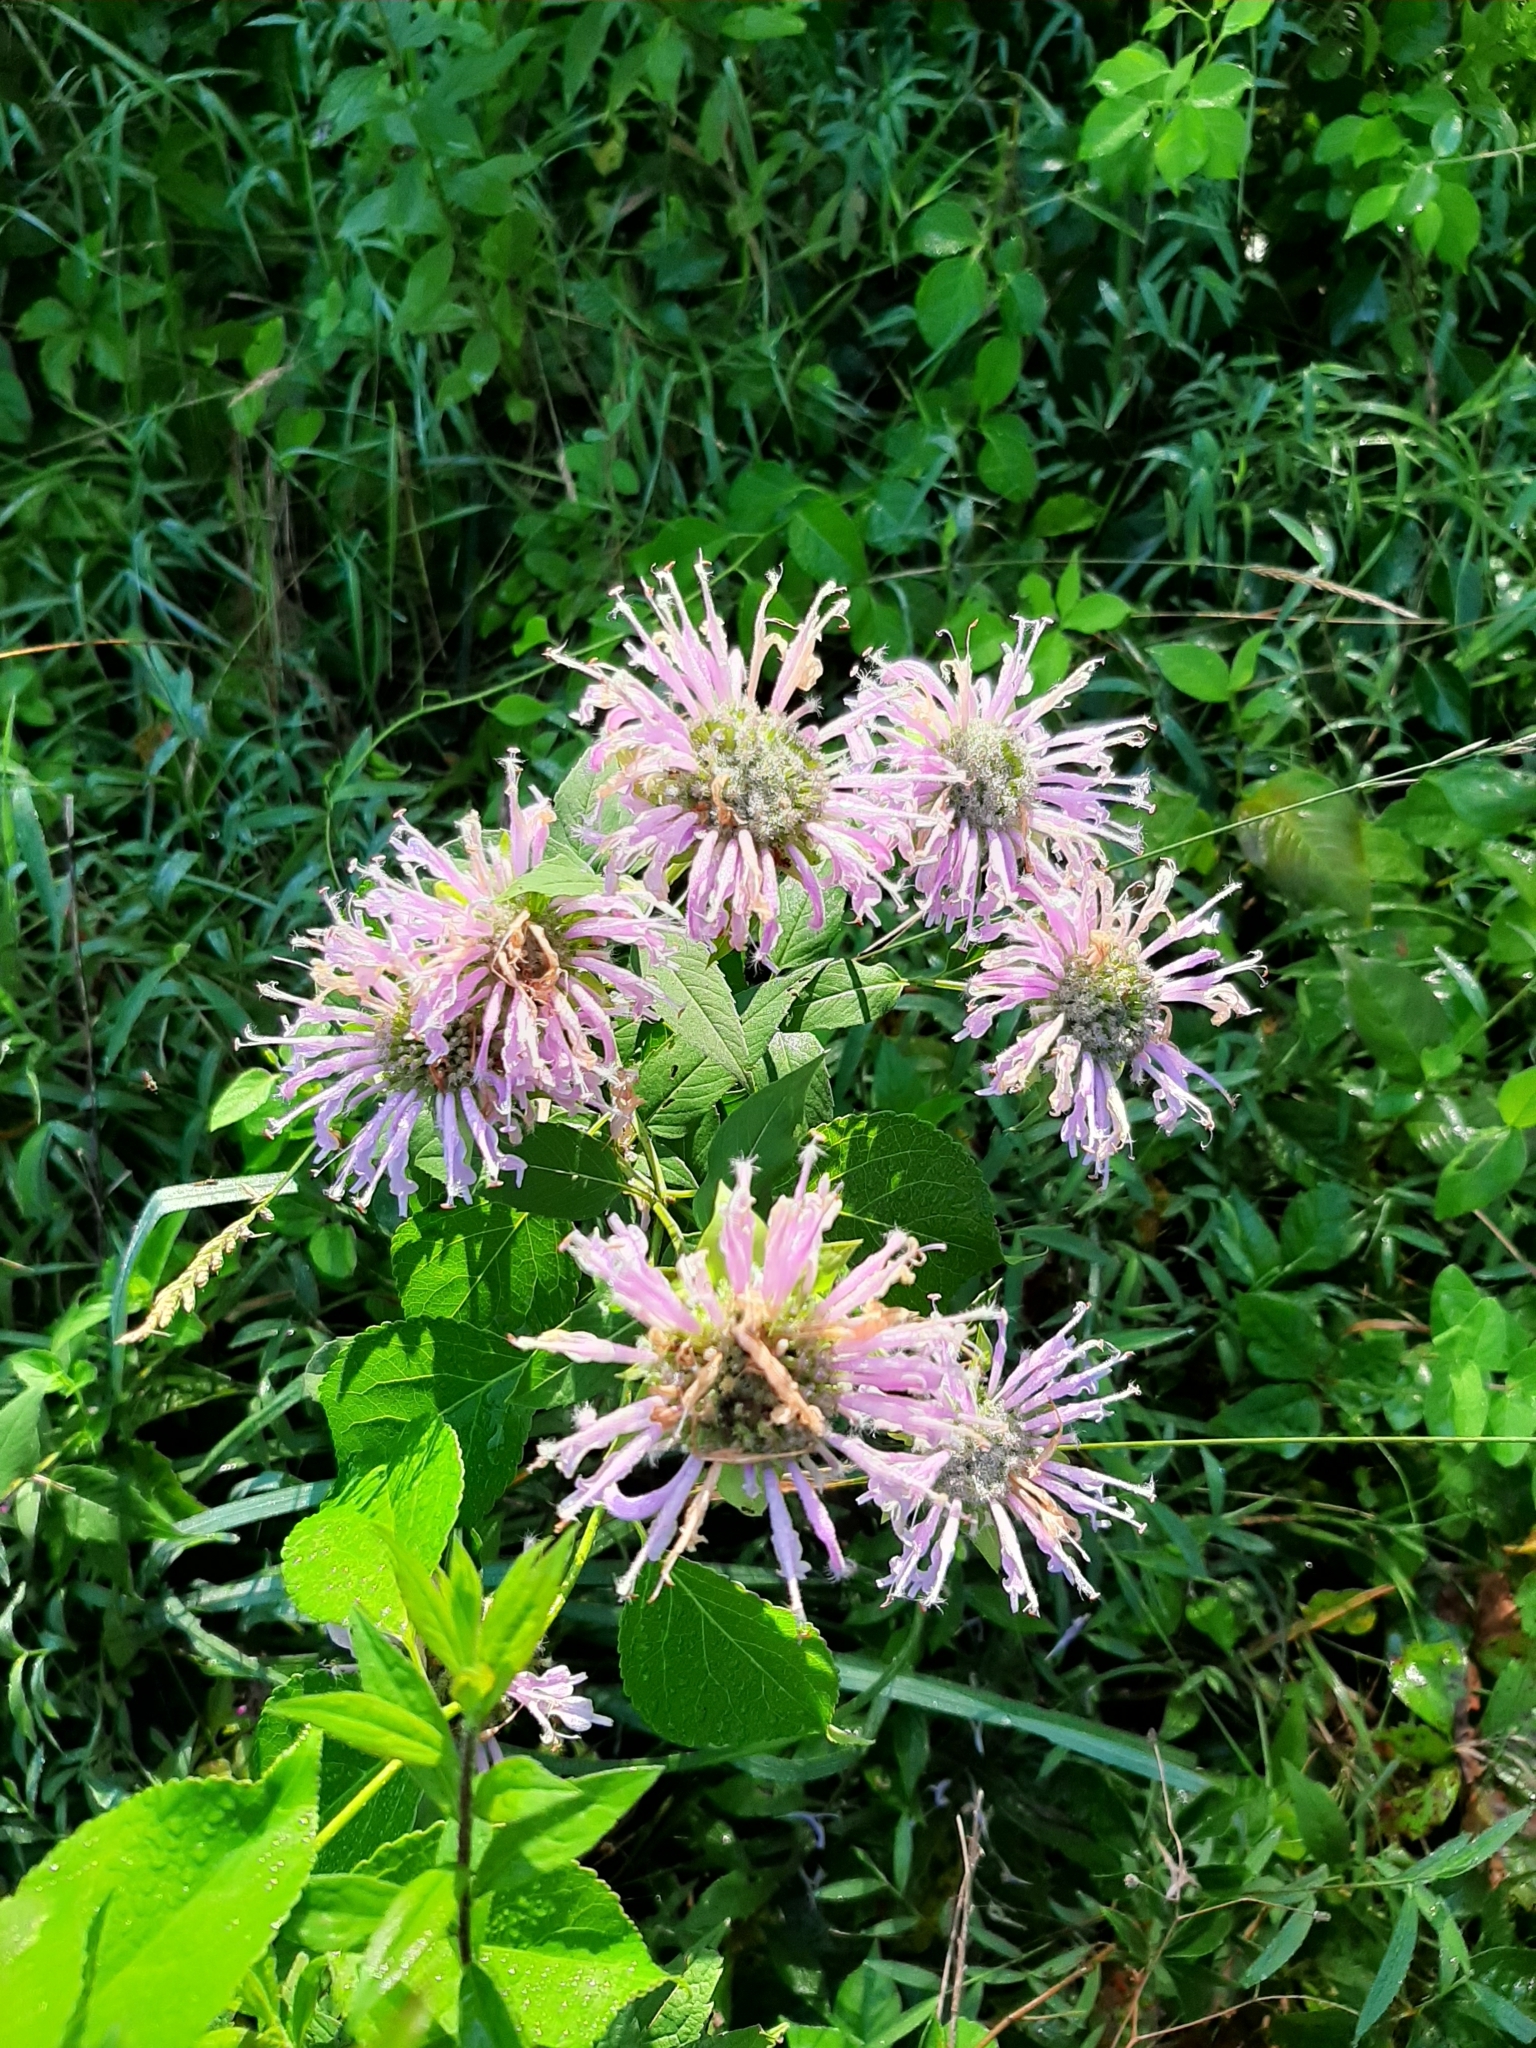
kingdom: Plantae
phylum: Tracheophyta
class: Magnoliopsida
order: Lamiales
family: Lamiaceae
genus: Monarda
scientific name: Monarda fistulosa
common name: Purple beebalm
